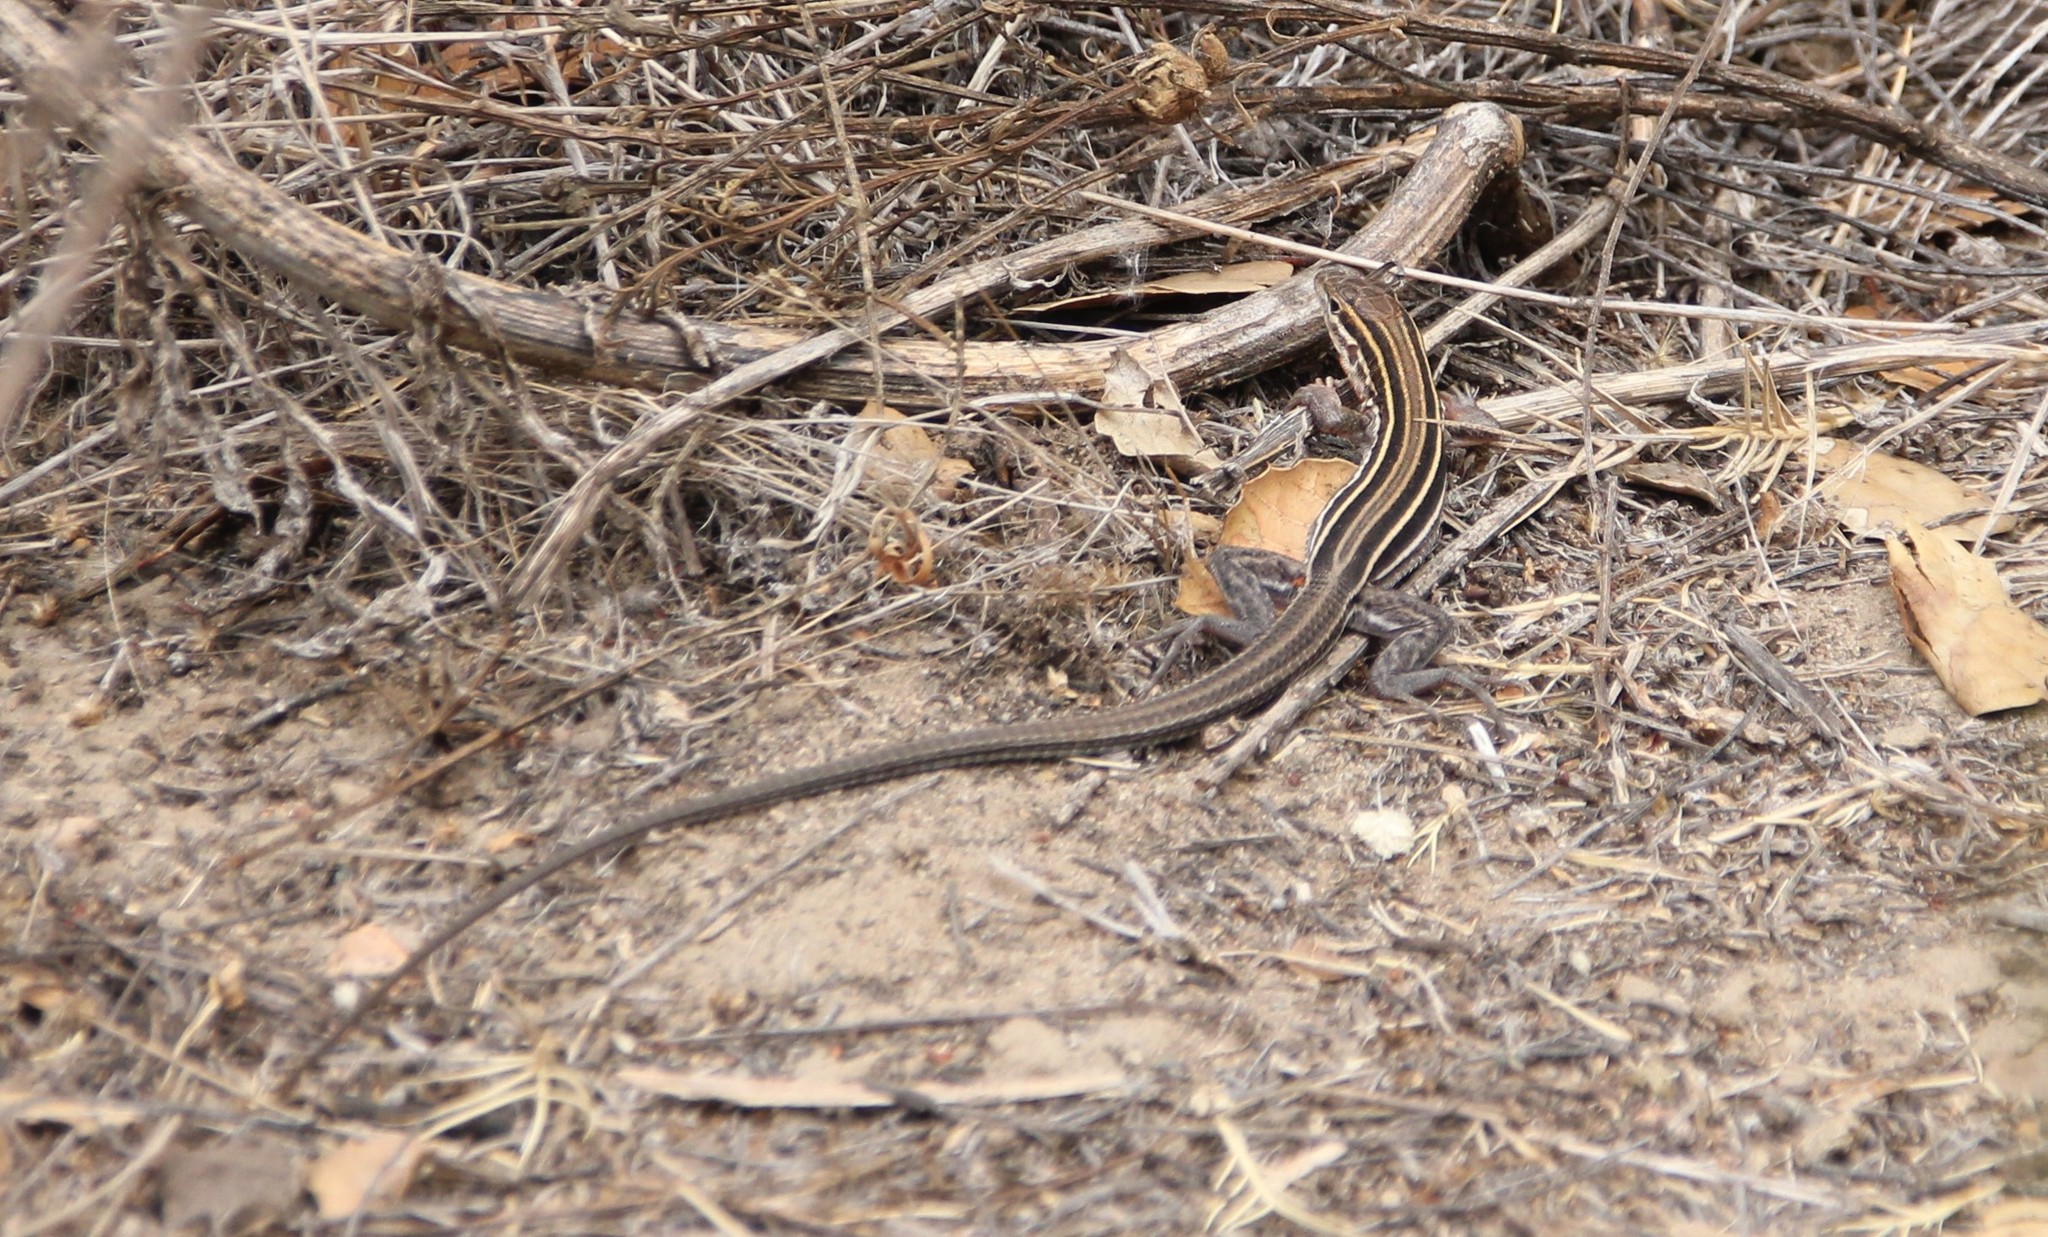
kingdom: Animalia
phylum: Chordata
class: Squamata
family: Teiidae
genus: Aspidoscelis
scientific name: Aspidoscelis hyperythrus
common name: Orange-throated race-runner
